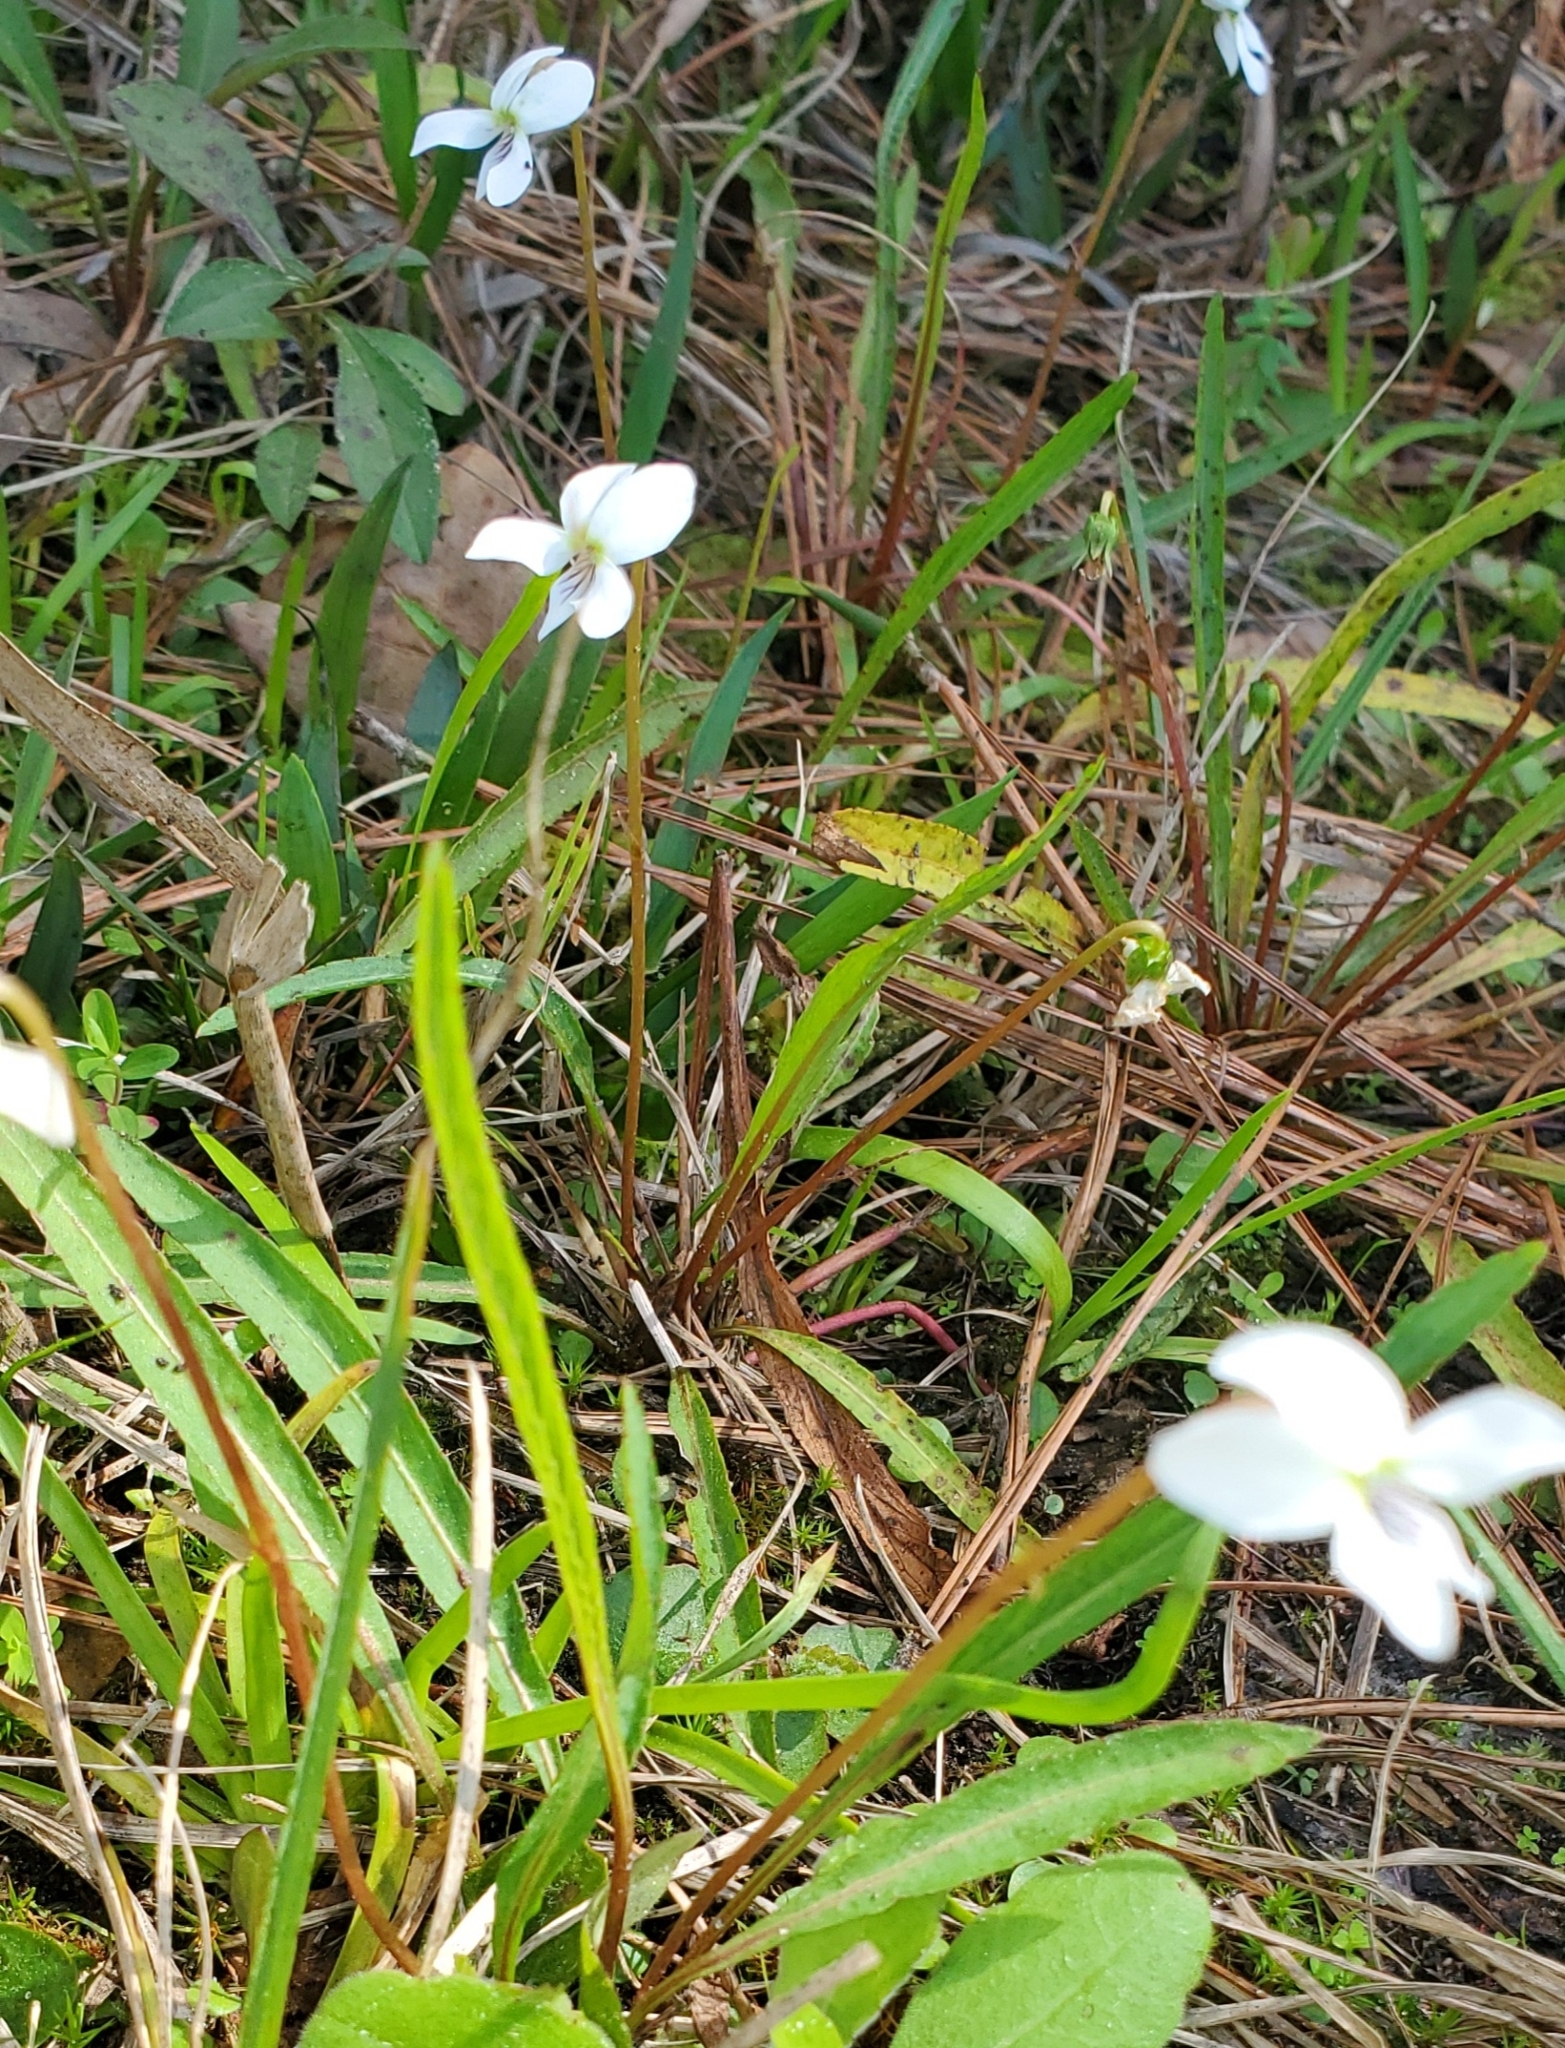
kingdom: Plantae
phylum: Tracheophyta
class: Magnoliopsida
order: Malpighiales
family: Violaceae
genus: Viola
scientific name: Viola vittata
